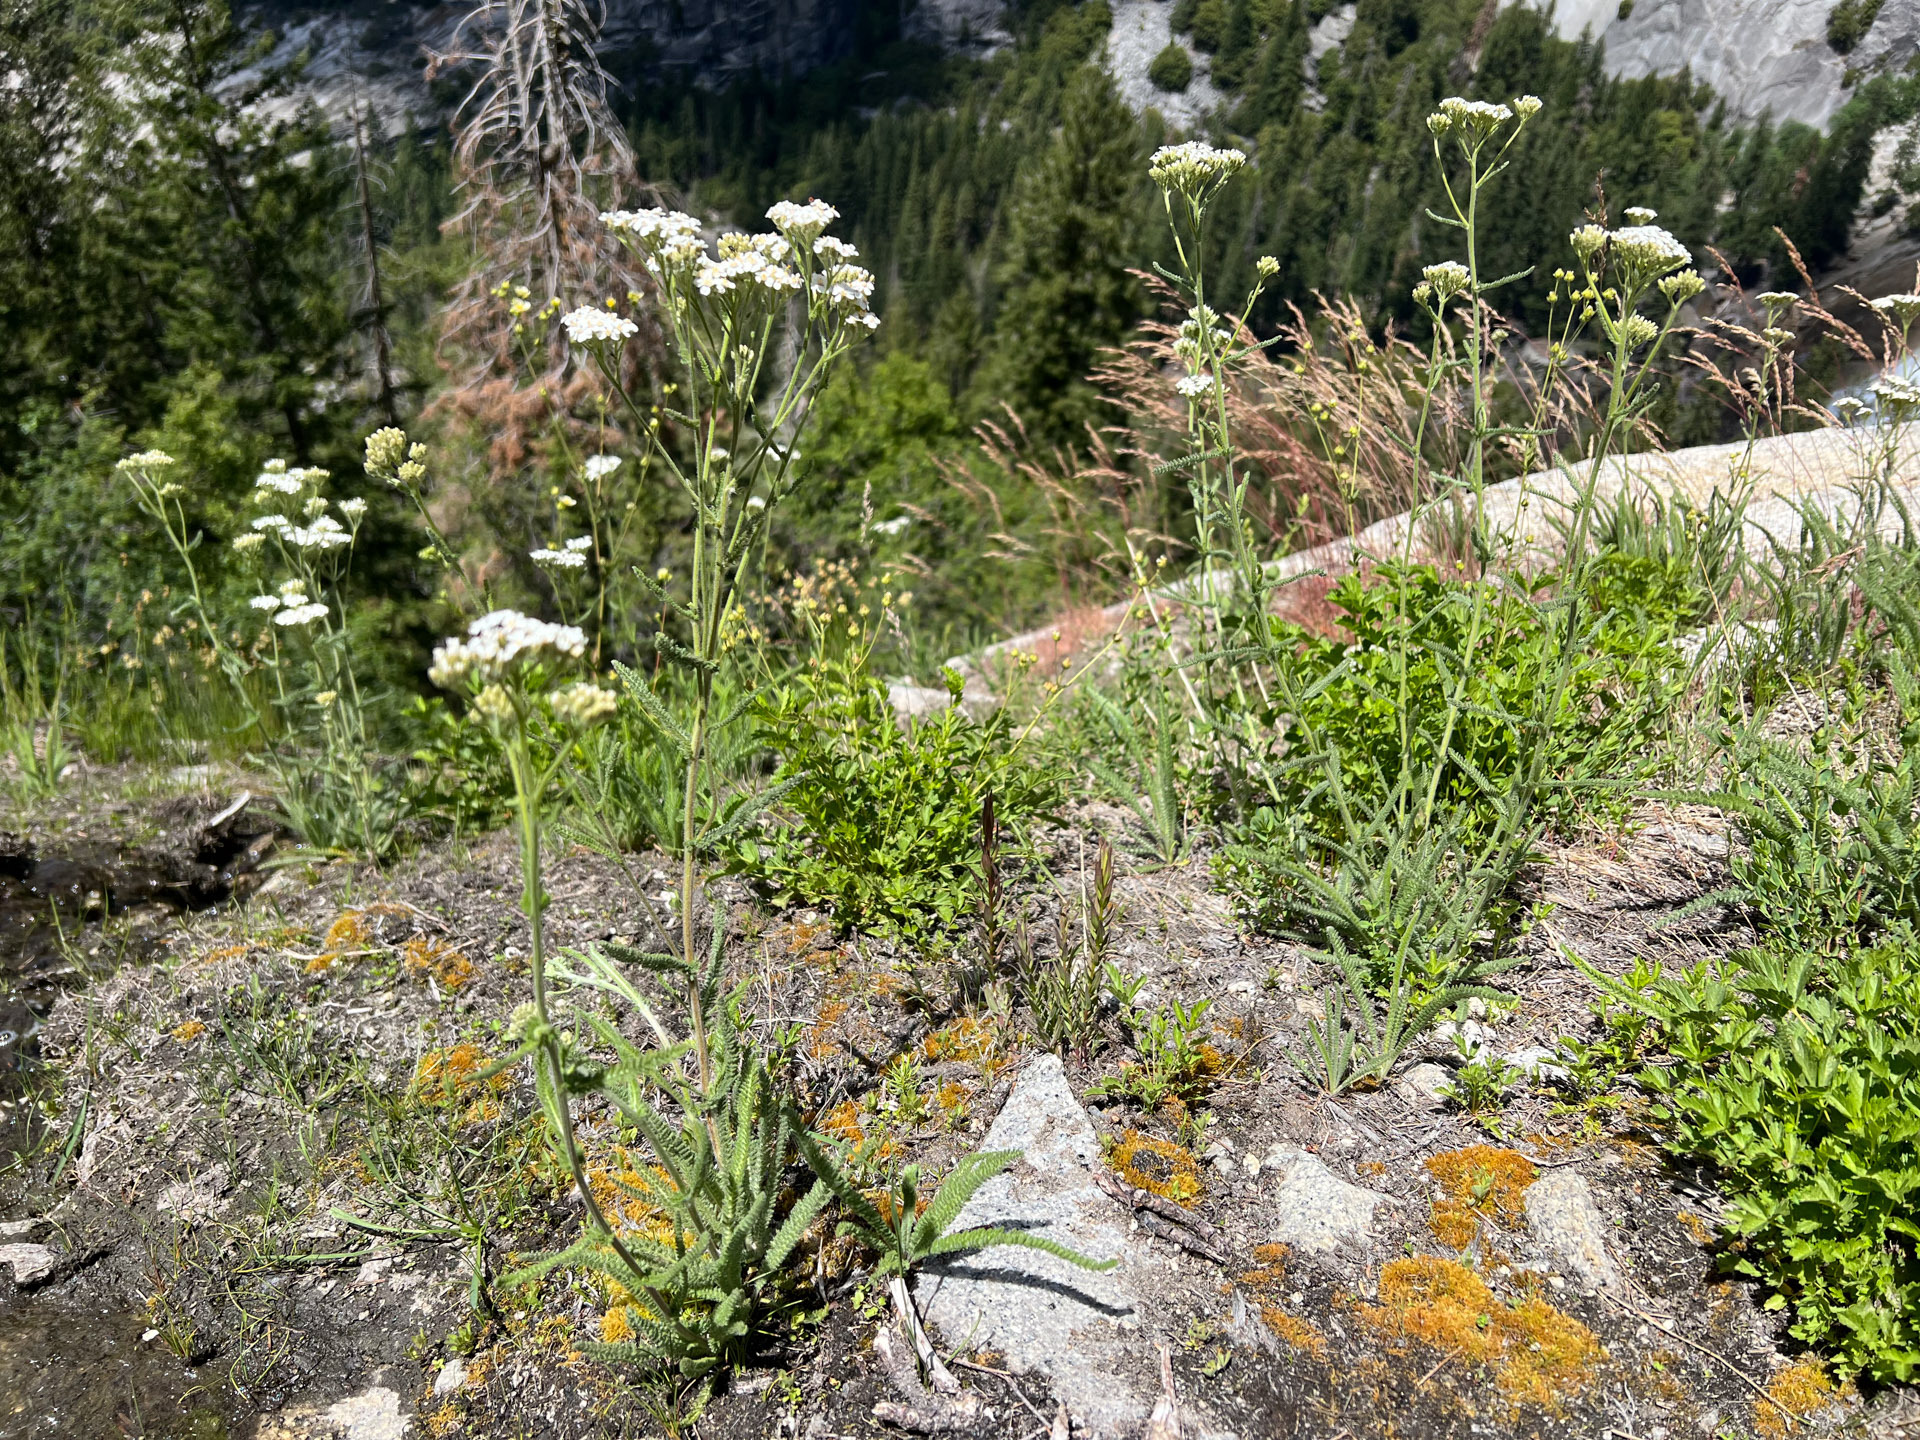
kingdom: Plantae
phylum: Tracheophyta
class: Magnoliopsida
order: Asterales
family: Asteraceae
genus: Achillea
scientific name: Achillea millefolium
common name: Yarrow
